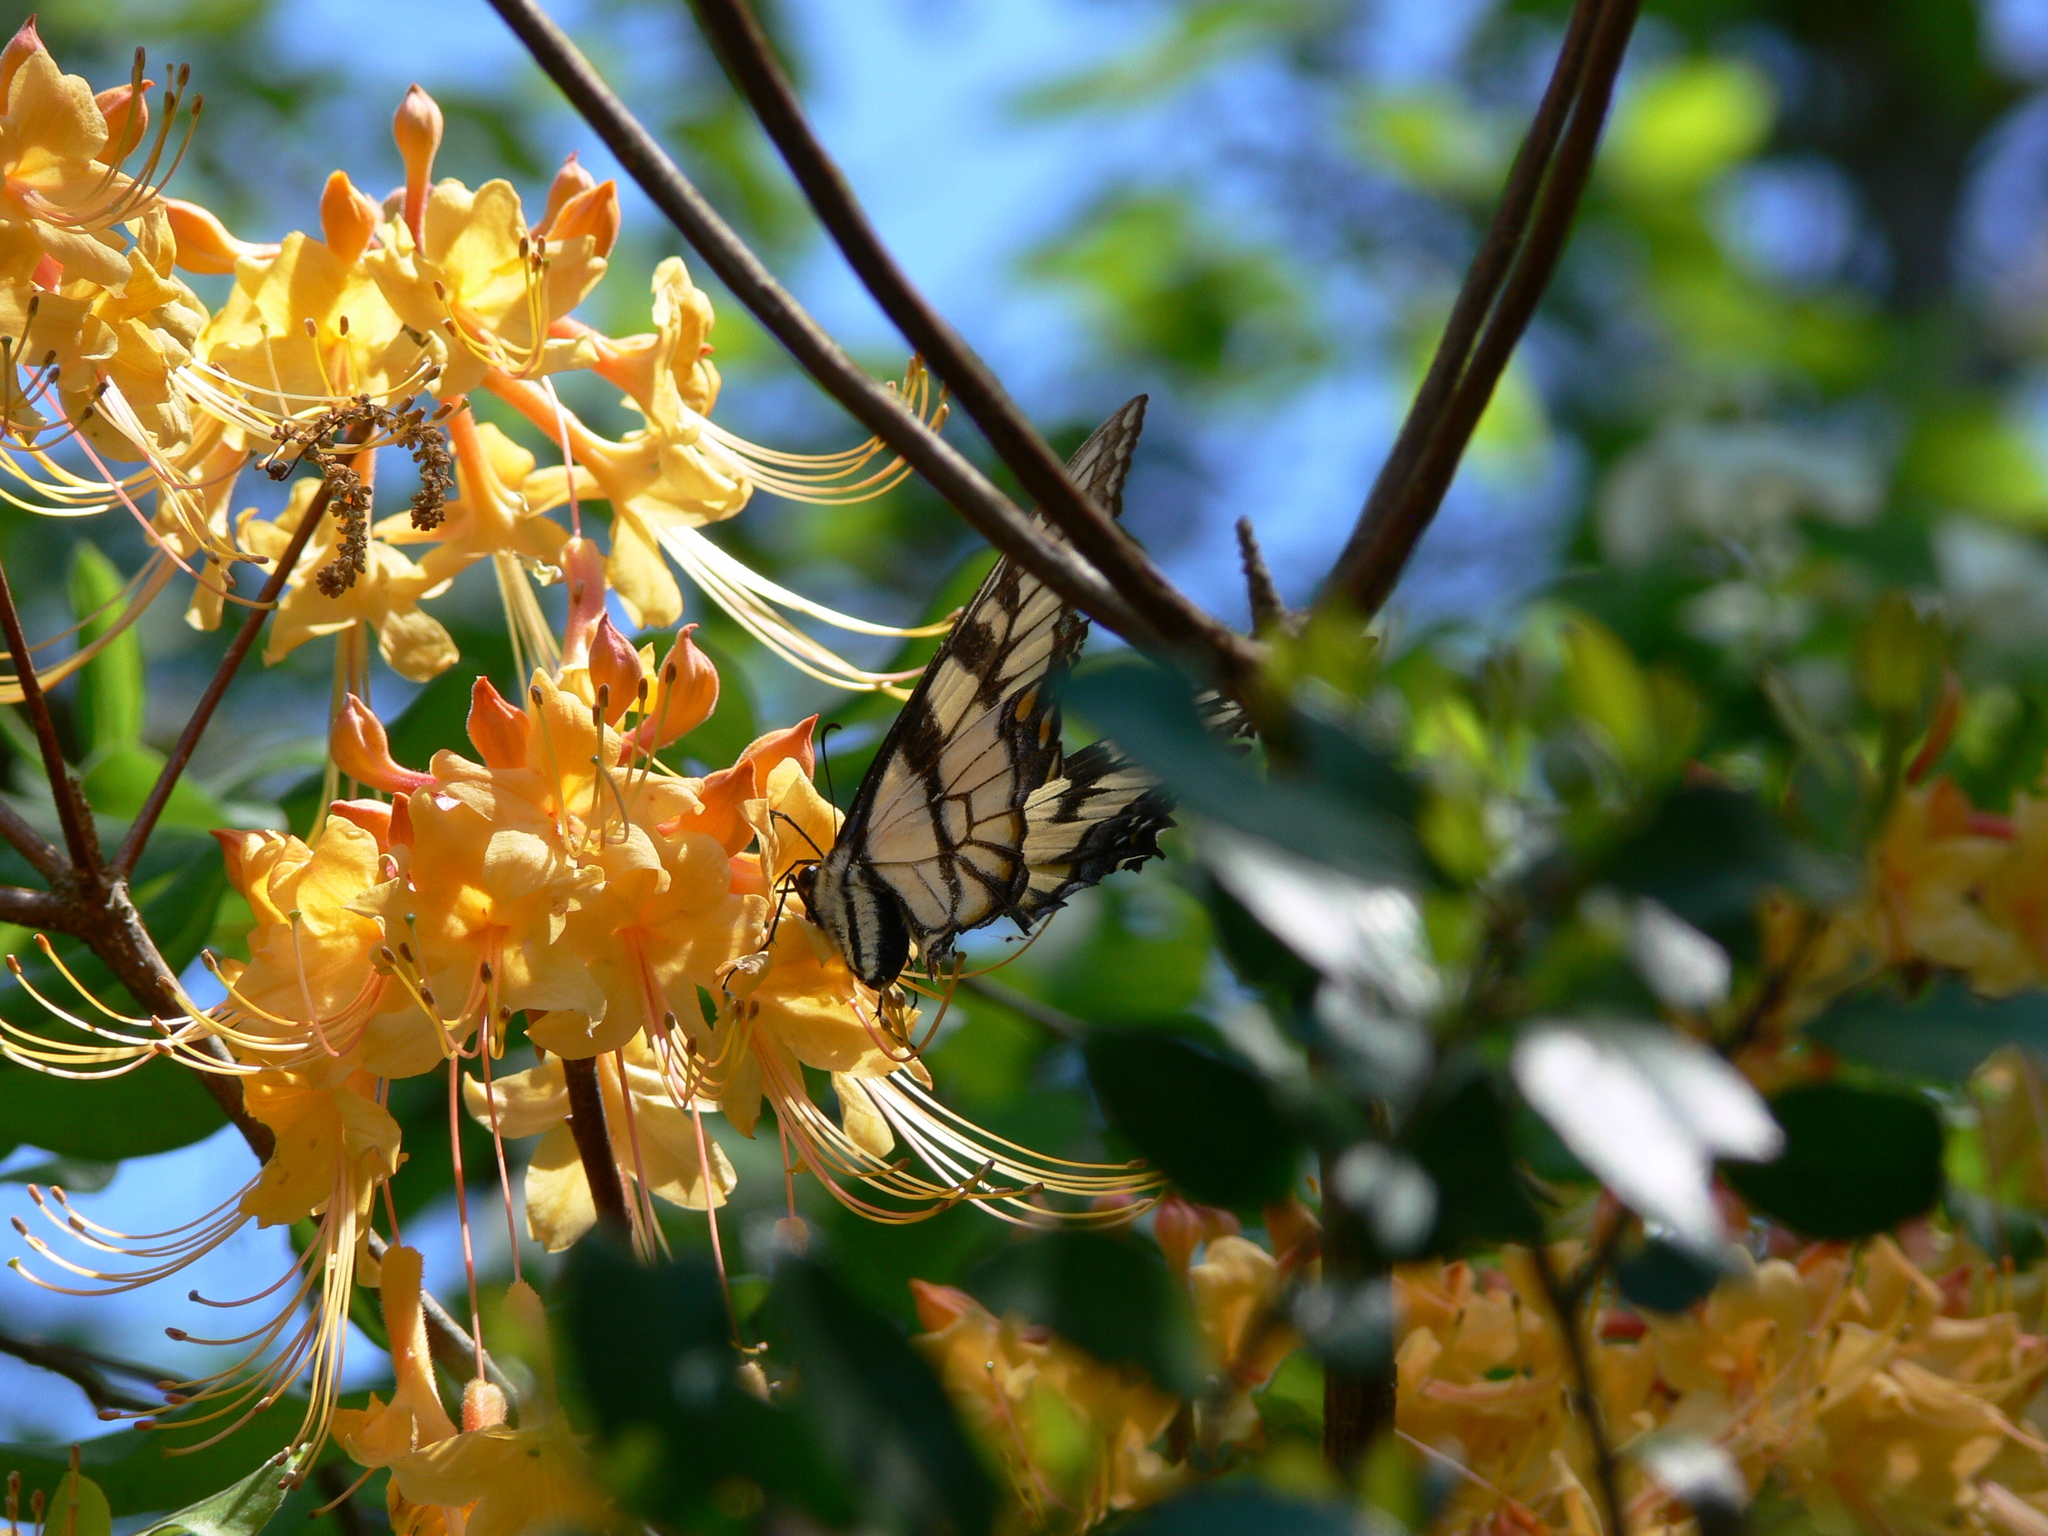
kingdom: Animalia
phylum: Arthropoda
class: Insecta
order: Lepidoptera
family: Papilionidae
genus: Papilio
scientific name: Papilio glaucus
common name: Tiger swallowtail
